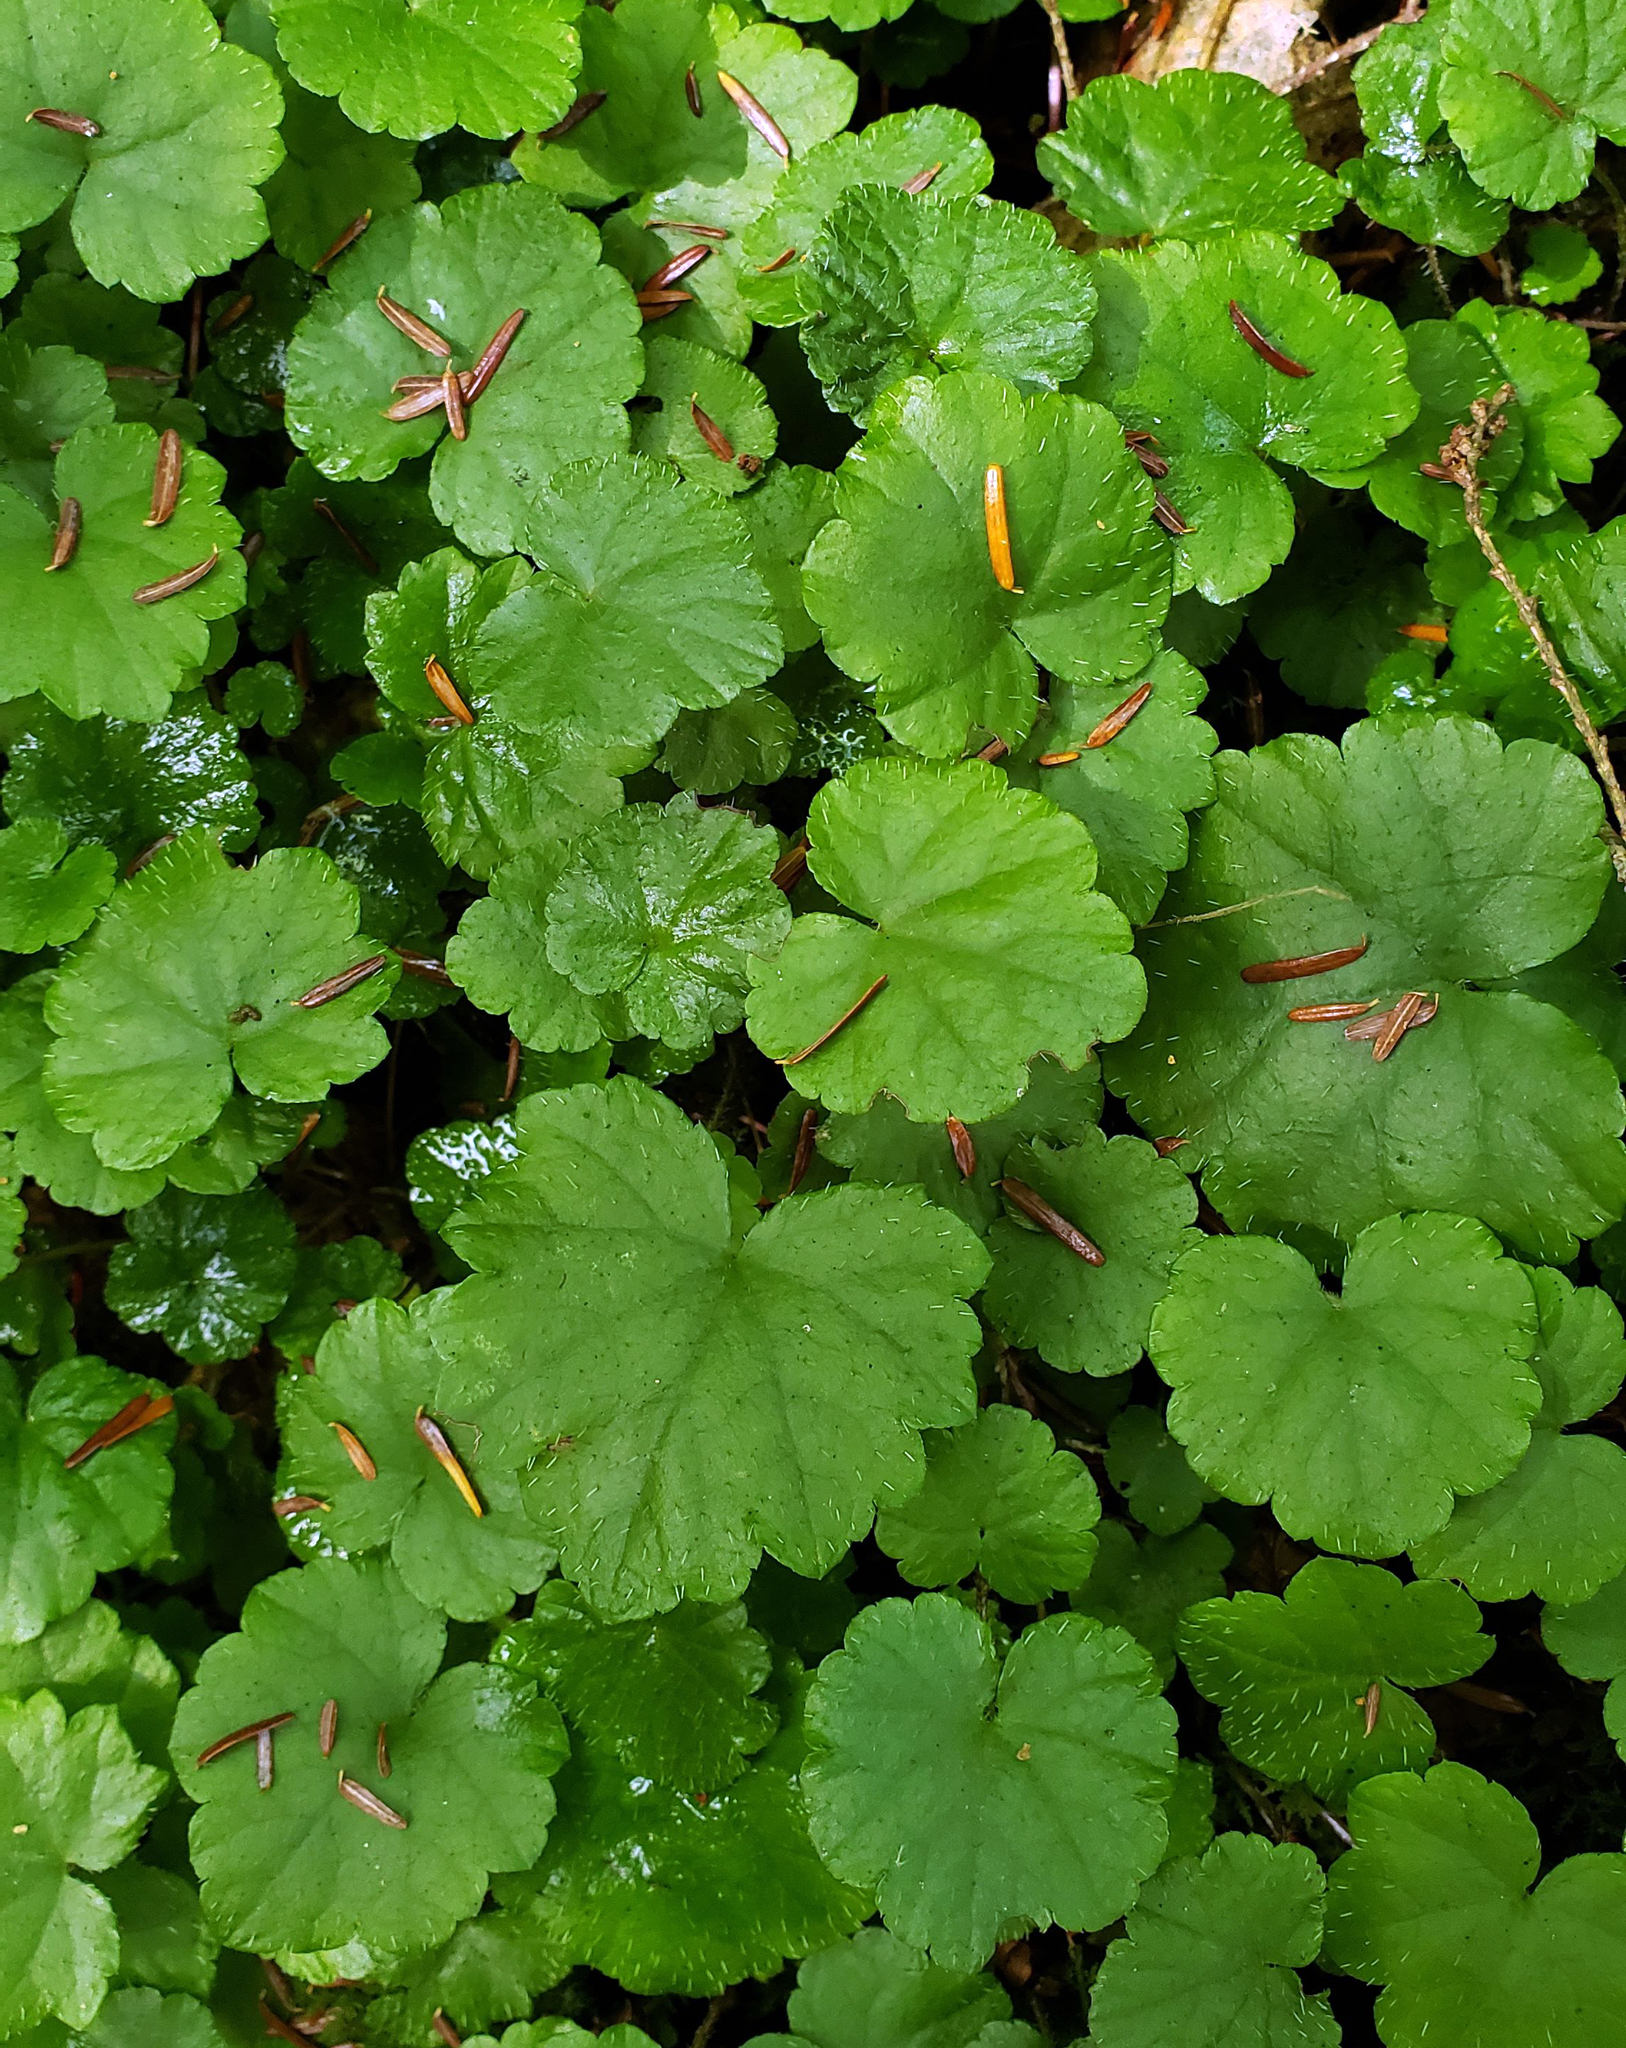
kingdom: Plantae
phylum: Tracheophyta
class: Magnoliopsida
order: Saxifragales
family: Saxifragaceae
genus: Mitella
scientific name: Mitella nuda
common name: Bare-stemmed bishop's-cap
